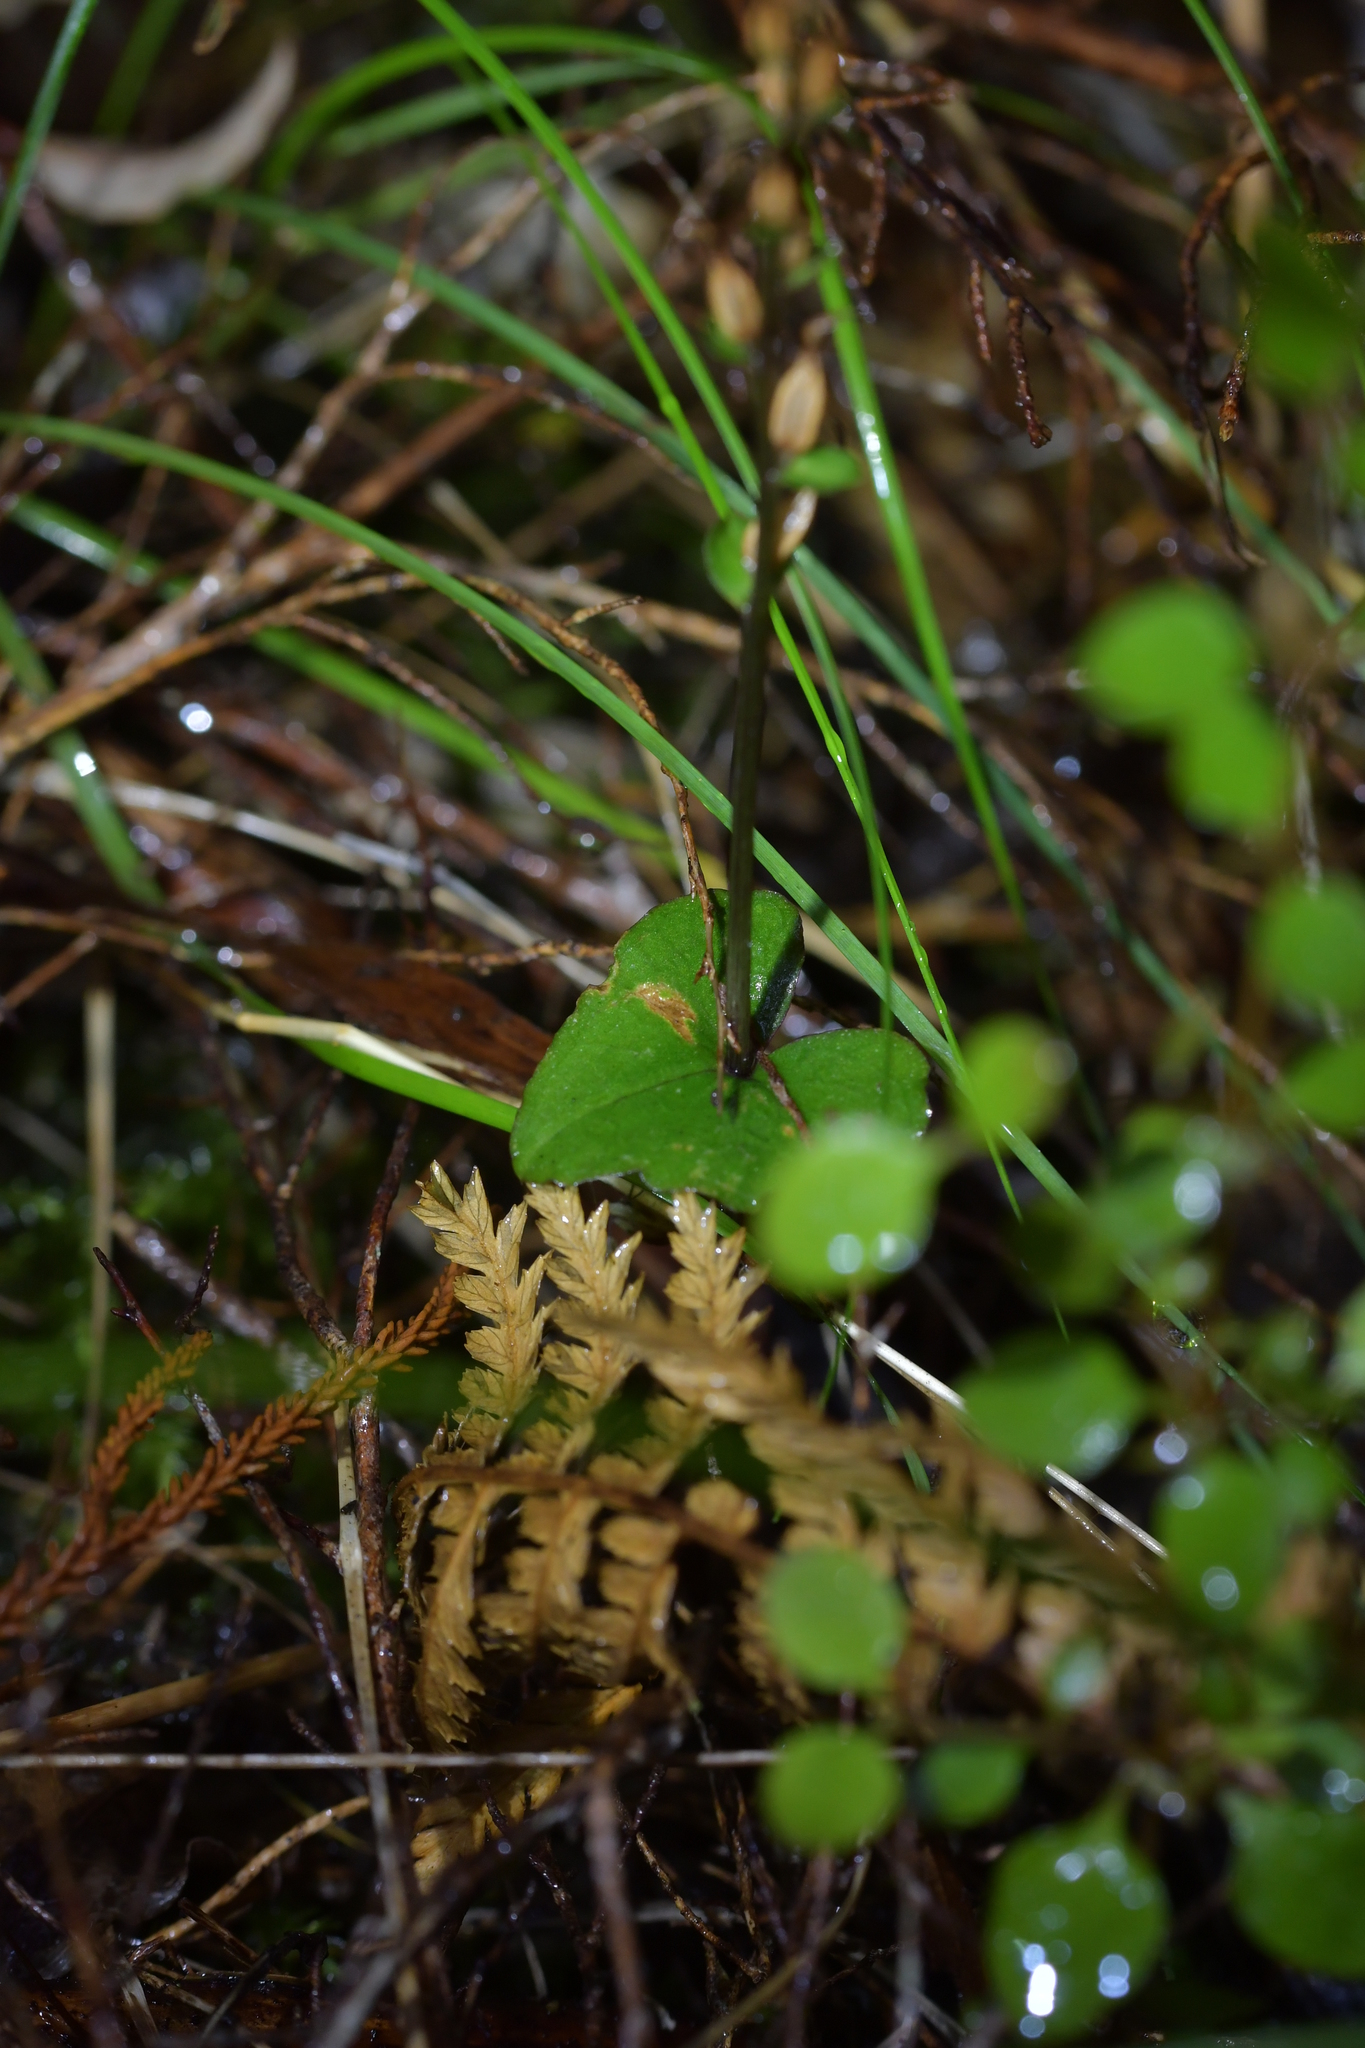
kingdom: Plantae
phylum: Tracheophyta
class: Liliopsida
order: Asparagales
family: Orchidaceae
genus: Acianthus
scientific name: Acianthus sinclairii
